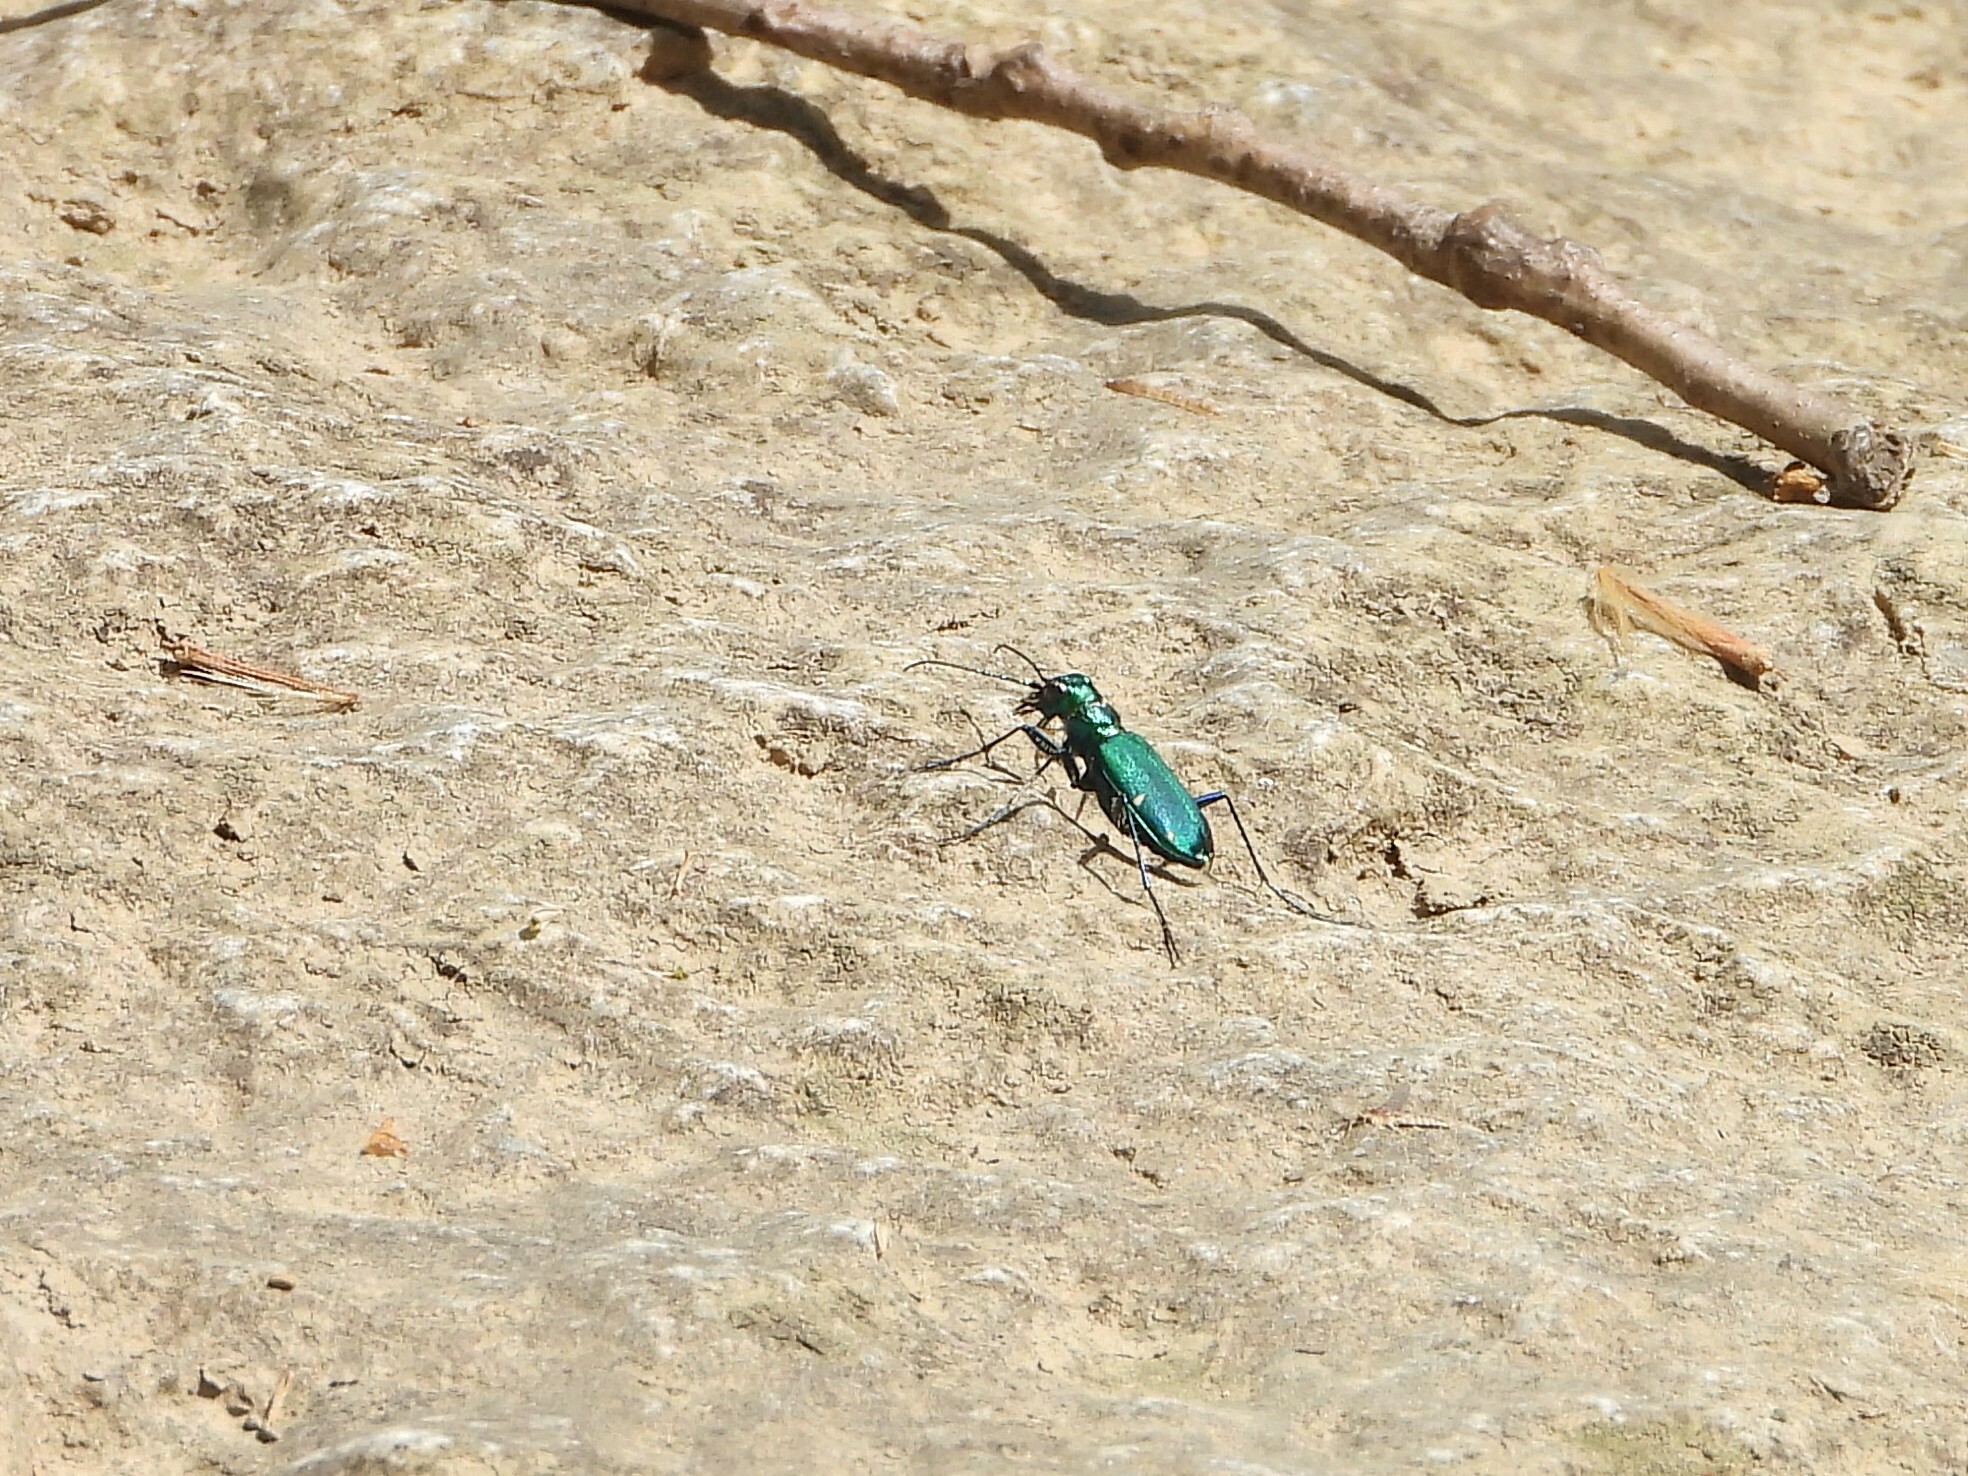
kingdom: Animalia
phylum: Arthropoda
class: Insecta
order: Coleoptera
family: Carabidae
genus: Cicindela
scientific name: Cicindela sexguttata
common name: Six-spotted tiger beetle
